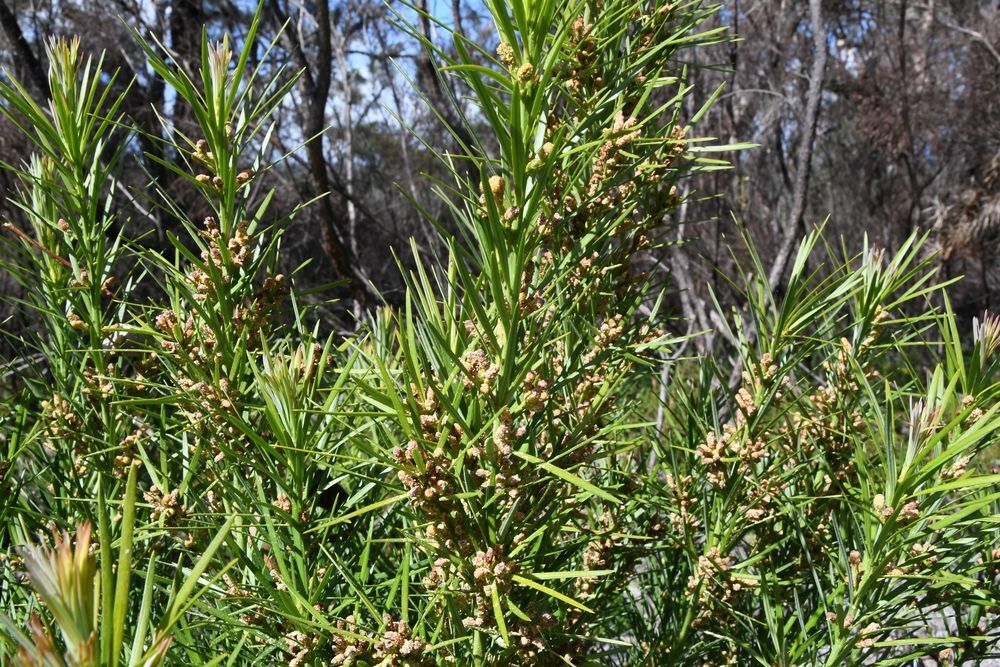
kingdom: Plantae
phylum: Tracheophyta
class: Pinopsida
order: Pinales
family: Podocarpaceae
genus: Podocarpus
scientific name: Podocarpus drouynianus
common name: Emu berry
